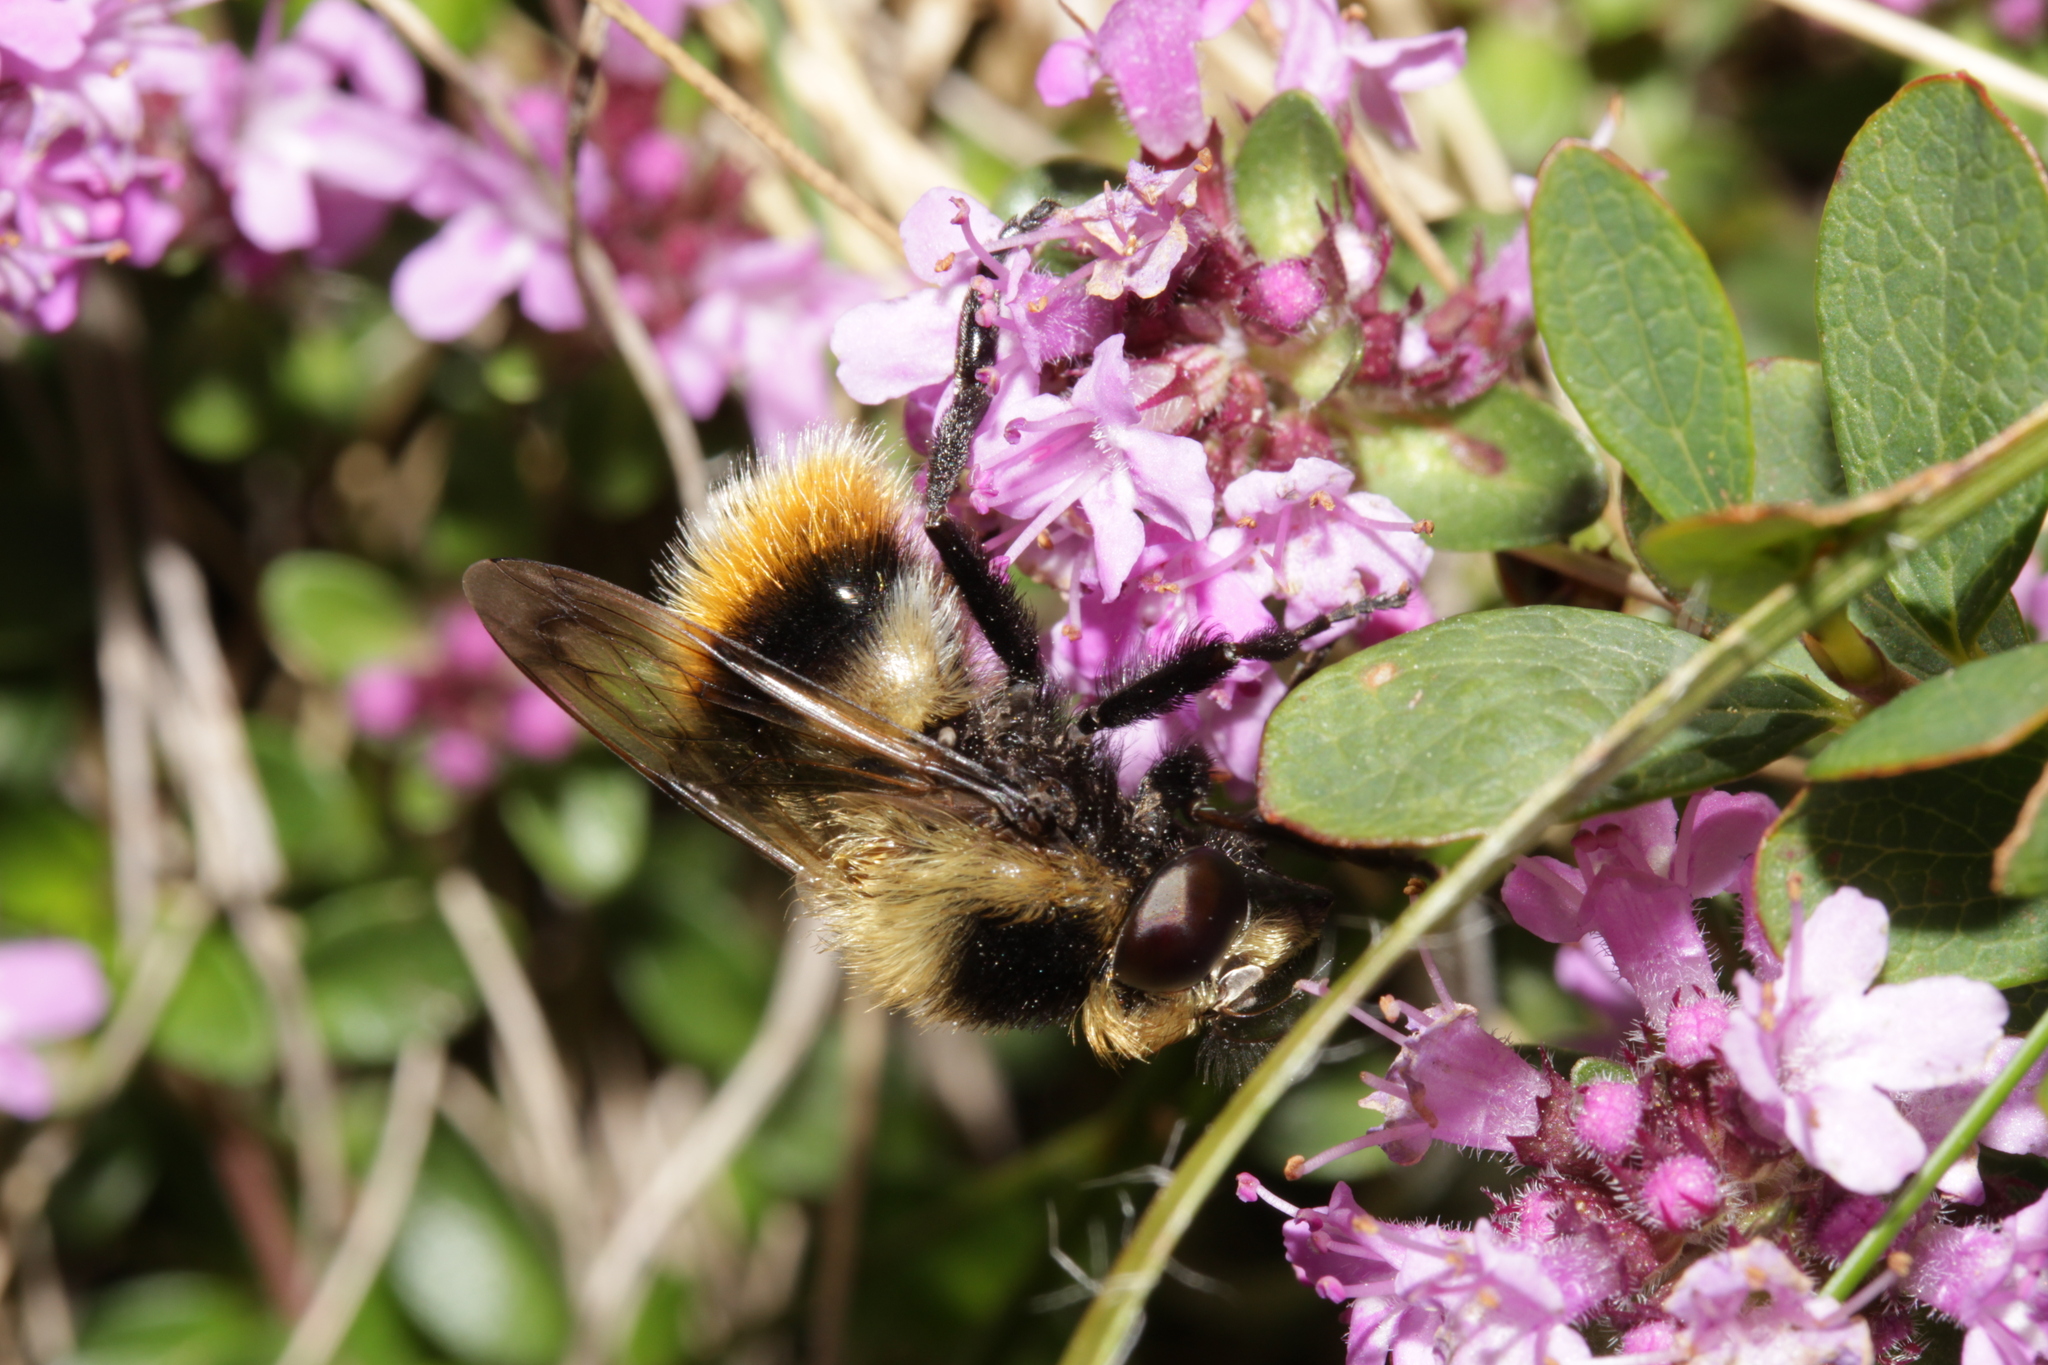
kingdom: Animalia
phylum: Arthropoda
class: Insecta
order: Diptera
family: Syrphidae
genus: Volucella
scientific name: Volucella bombylans
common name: Bumble bee hover fly
